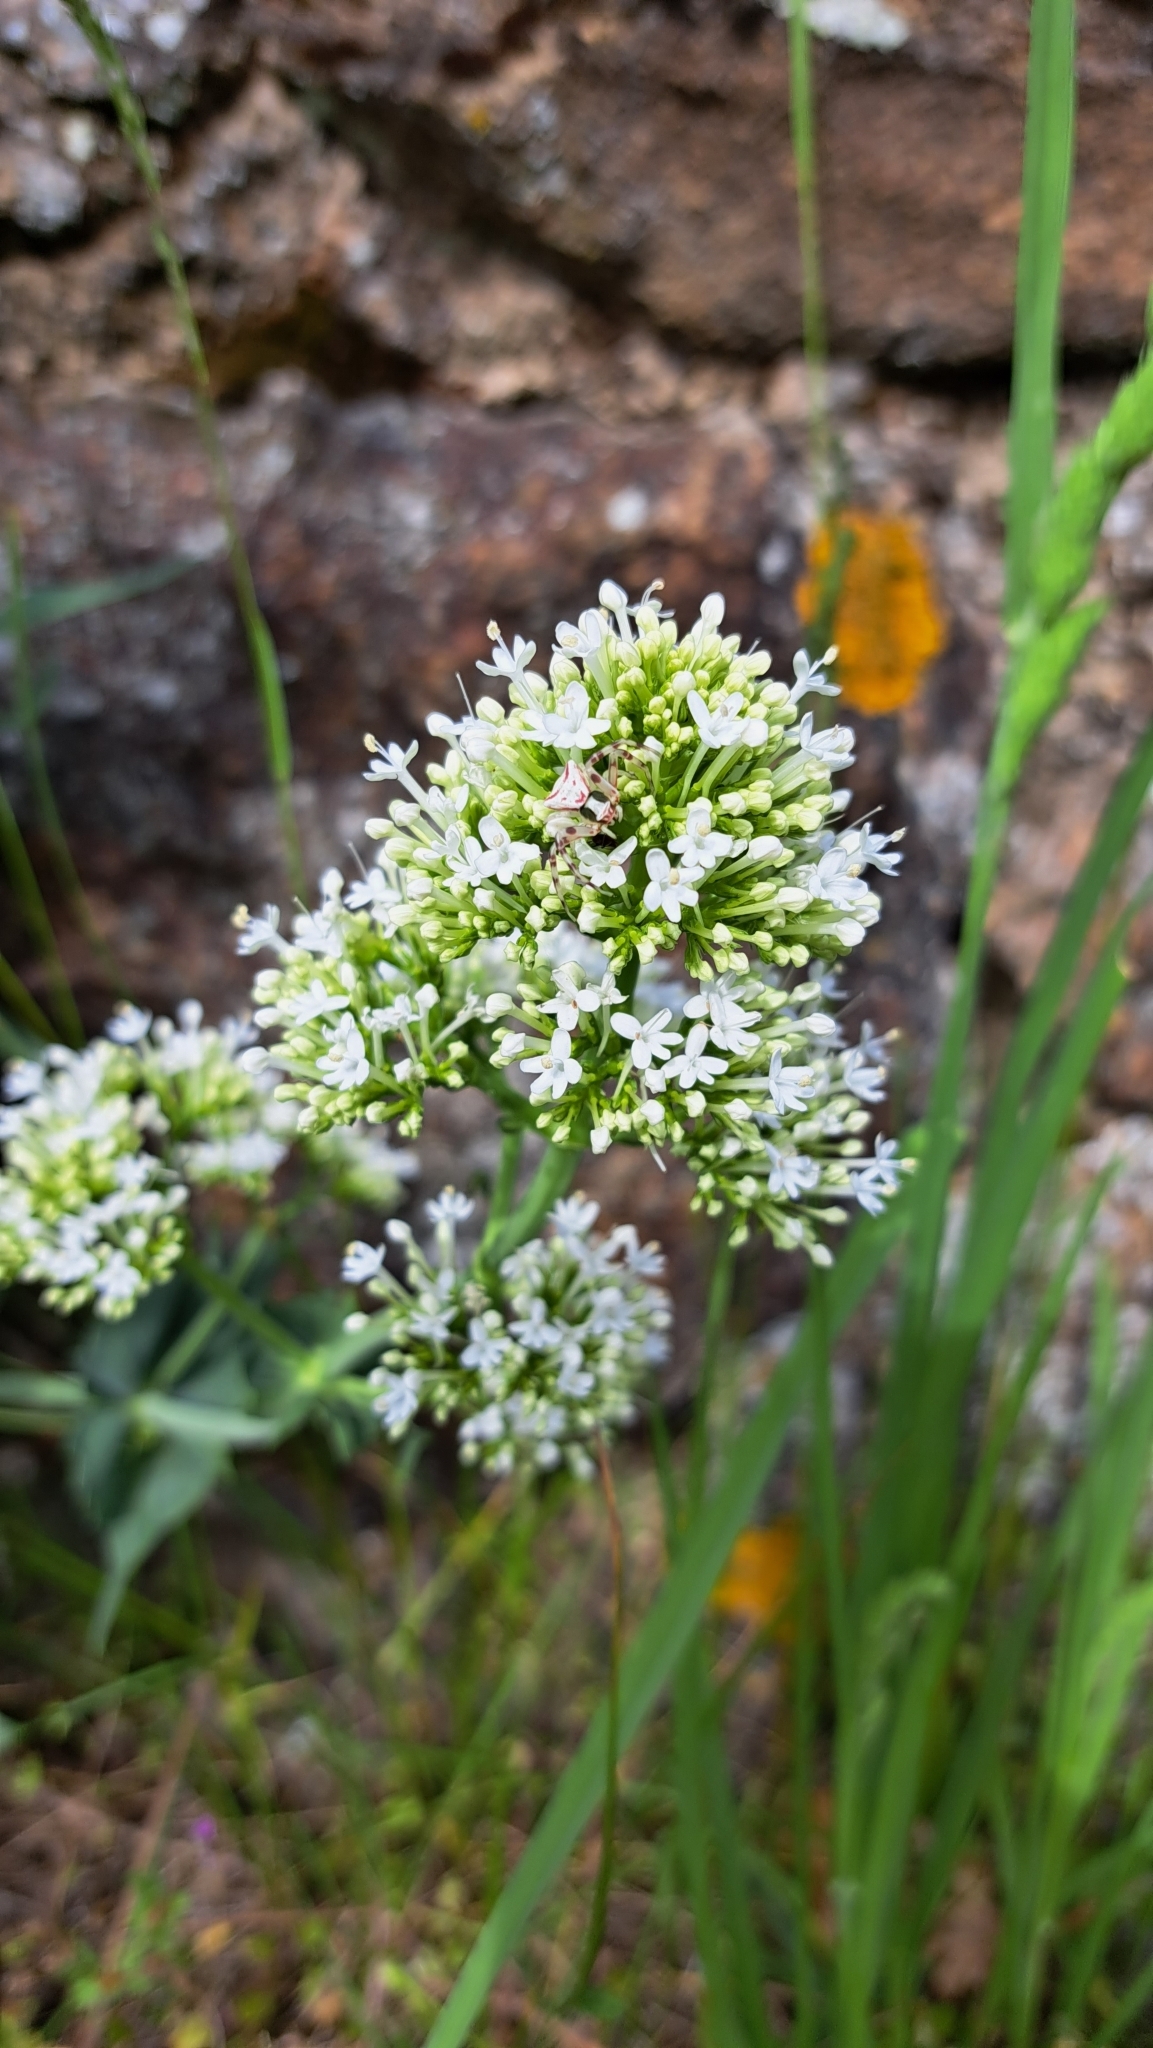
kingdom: Plantae
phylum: Tracheophyta
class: Magnoliopsida
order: Dipsacales
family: Caprifoliaceae
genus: Centranthus
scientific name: Centranthus ruber
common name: Red valerian
